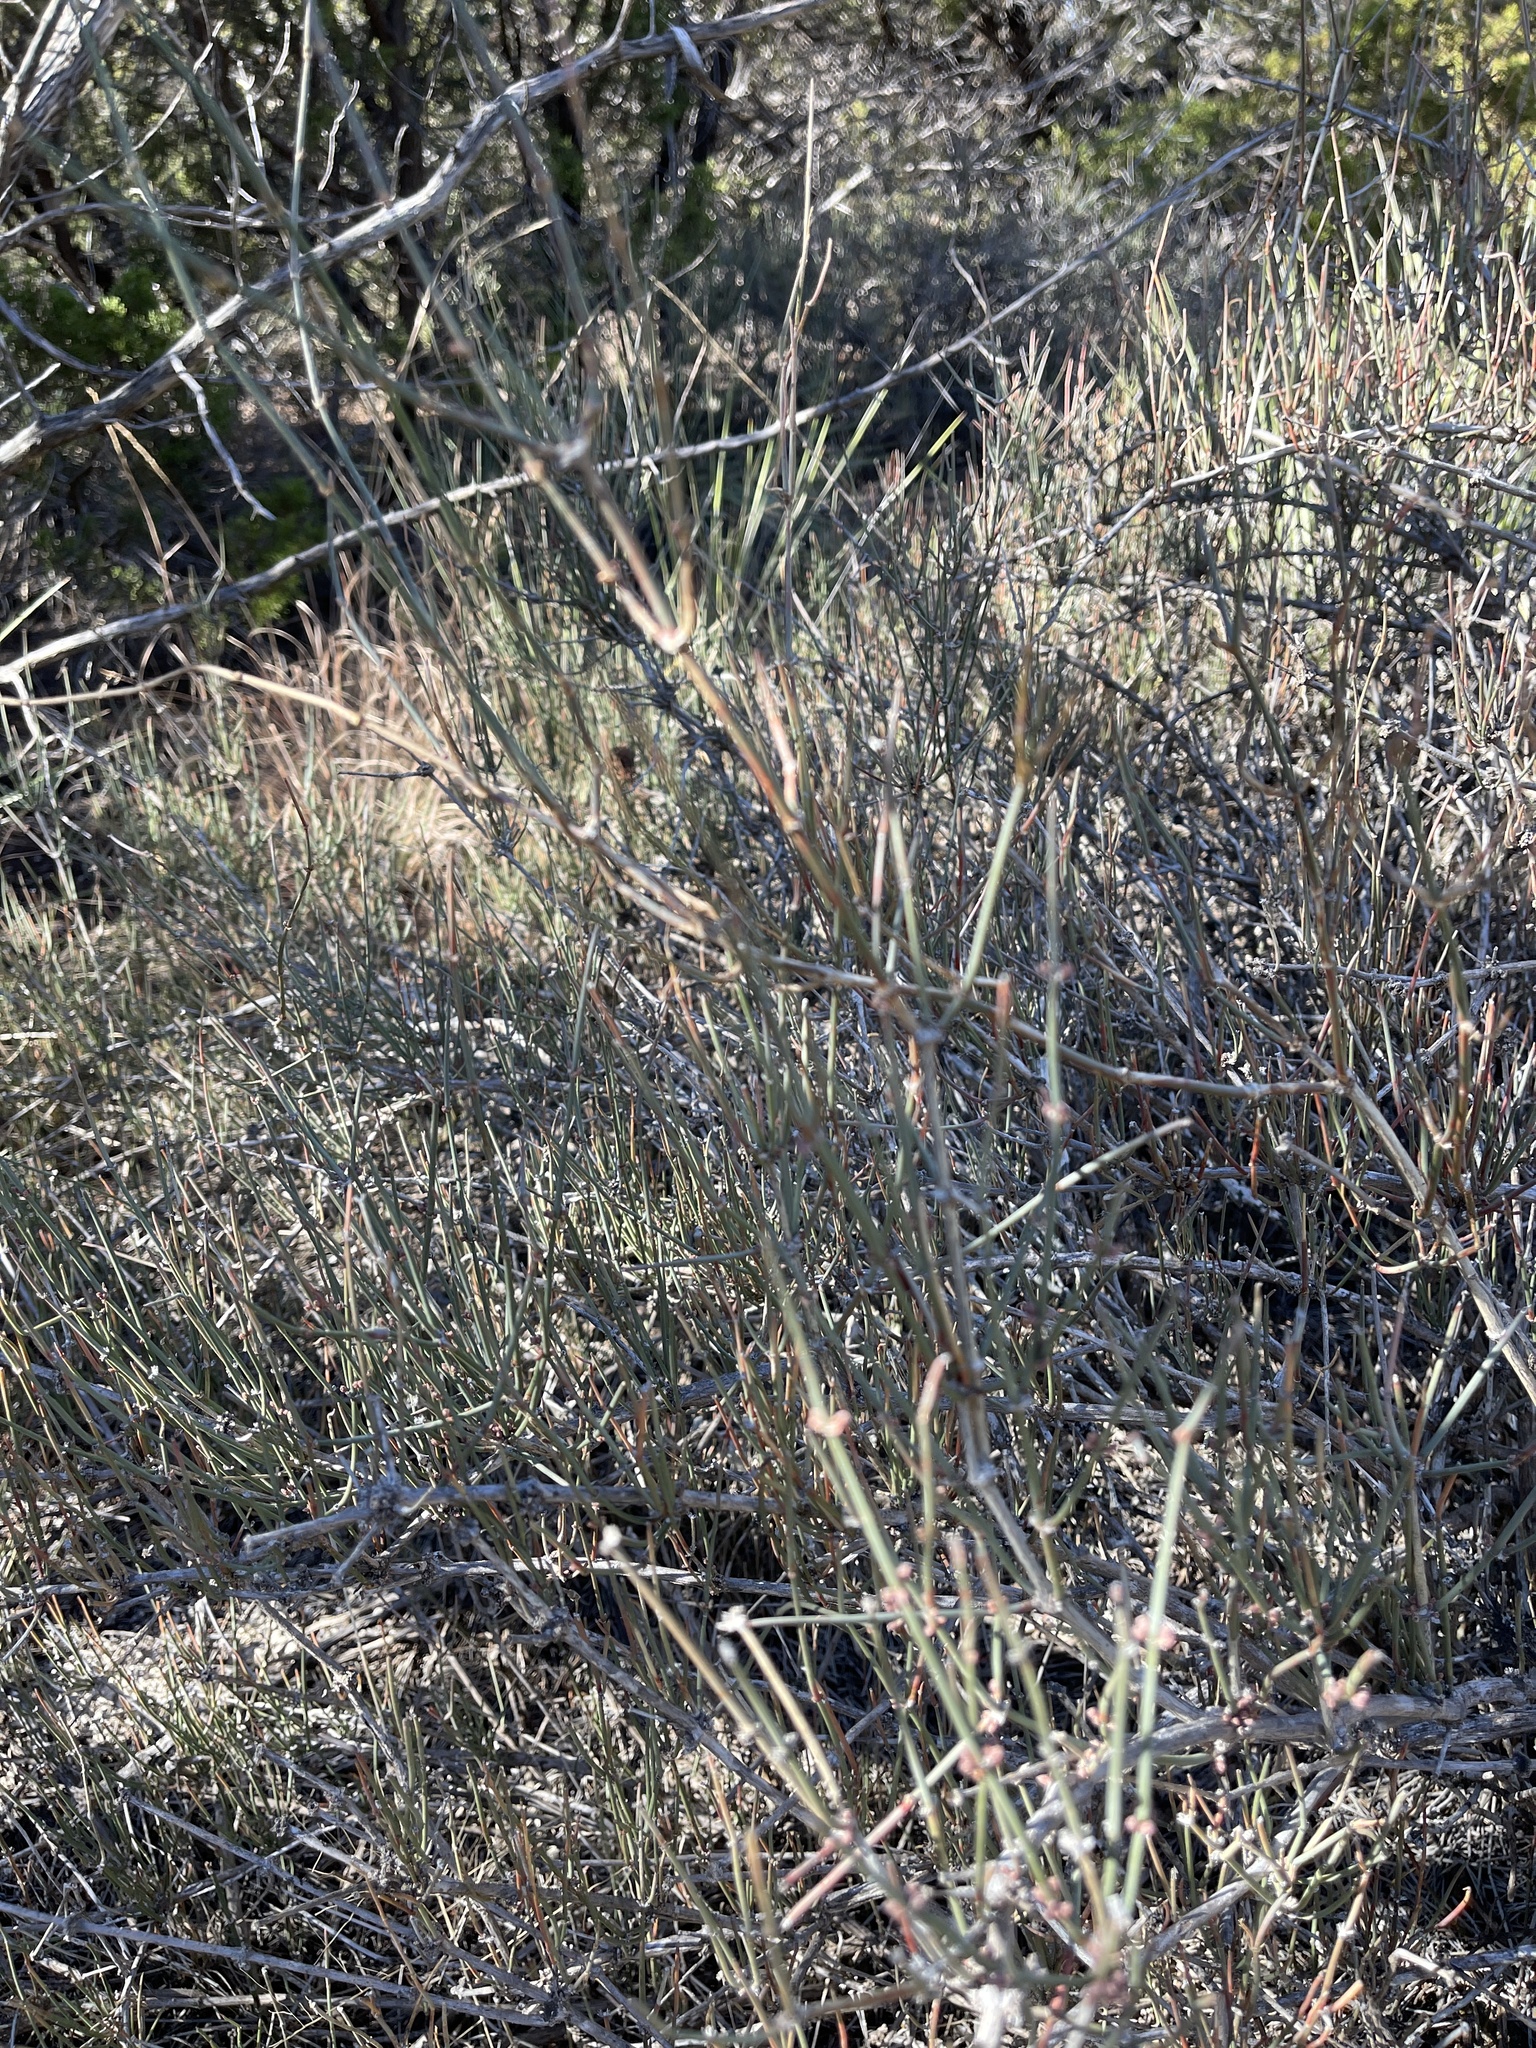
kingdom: Plantae
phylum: Tracheophyta
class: Gnetopsida
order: Ephedrales
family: Ephedraceae
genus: Ephedra
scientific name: Ephedra antisyphilitica
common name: Clipweed
